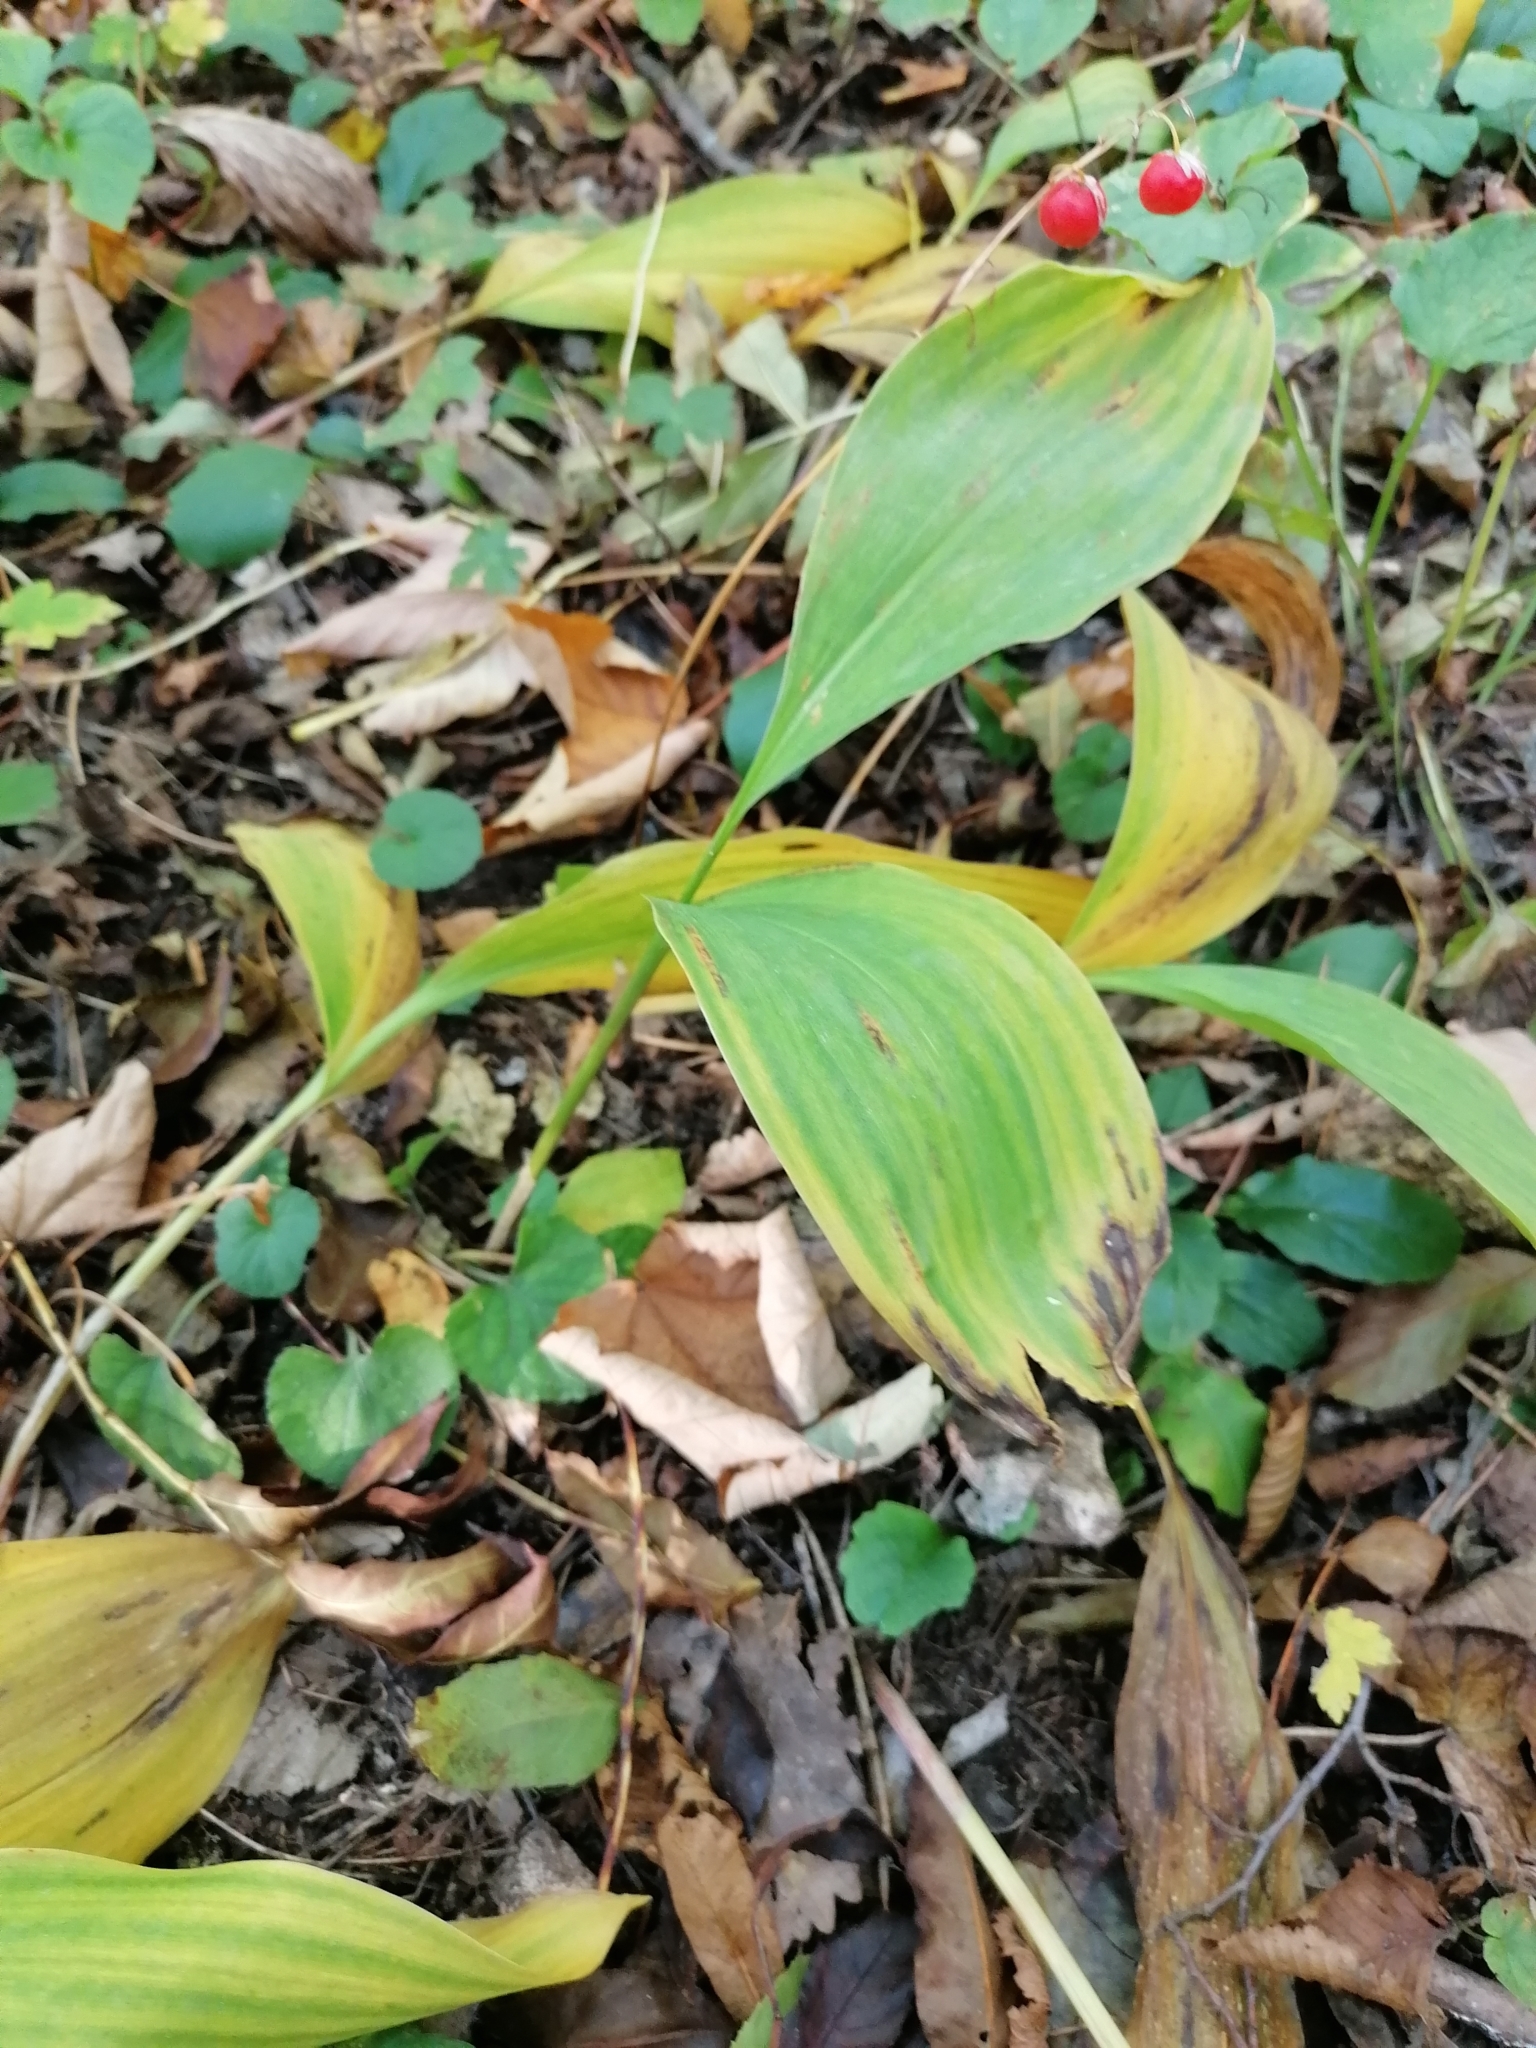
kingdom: Plantae
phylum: Tracheophyta
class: Liliopsida
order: Asparagales
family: Asparagaceae
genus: Convallaria
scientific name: Convallaria majalis
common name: Lily-of-the-valley
